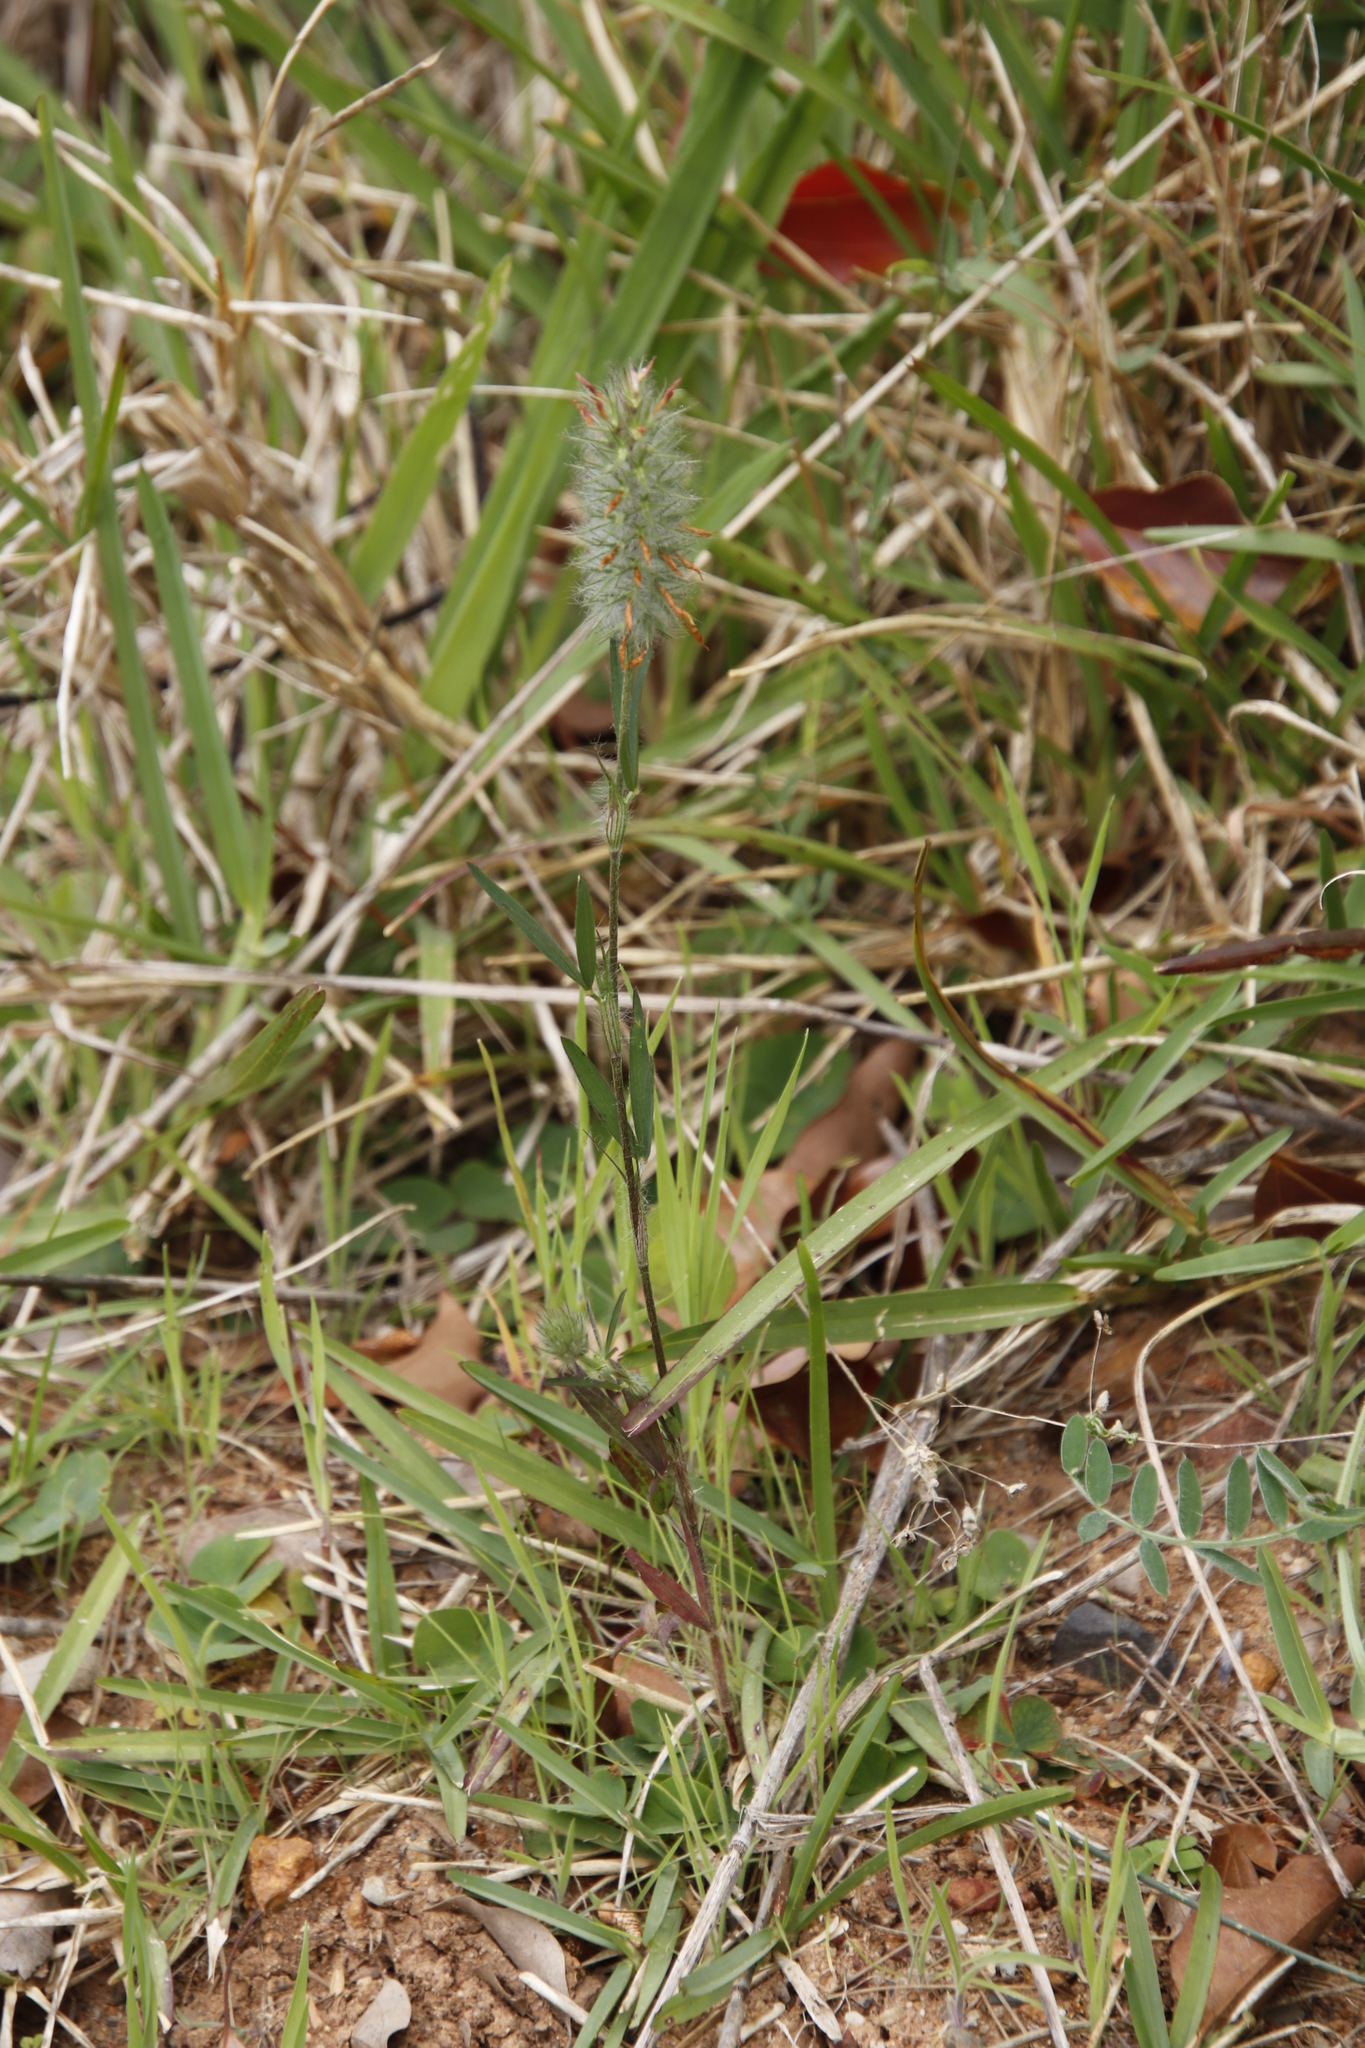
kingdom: Plantae
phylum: Tracheophyta
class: Magnoliopsida
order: Fabales
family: Fabaceae
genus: Trifolium
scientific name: Trifolium angustifolium
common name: Narrow clover
